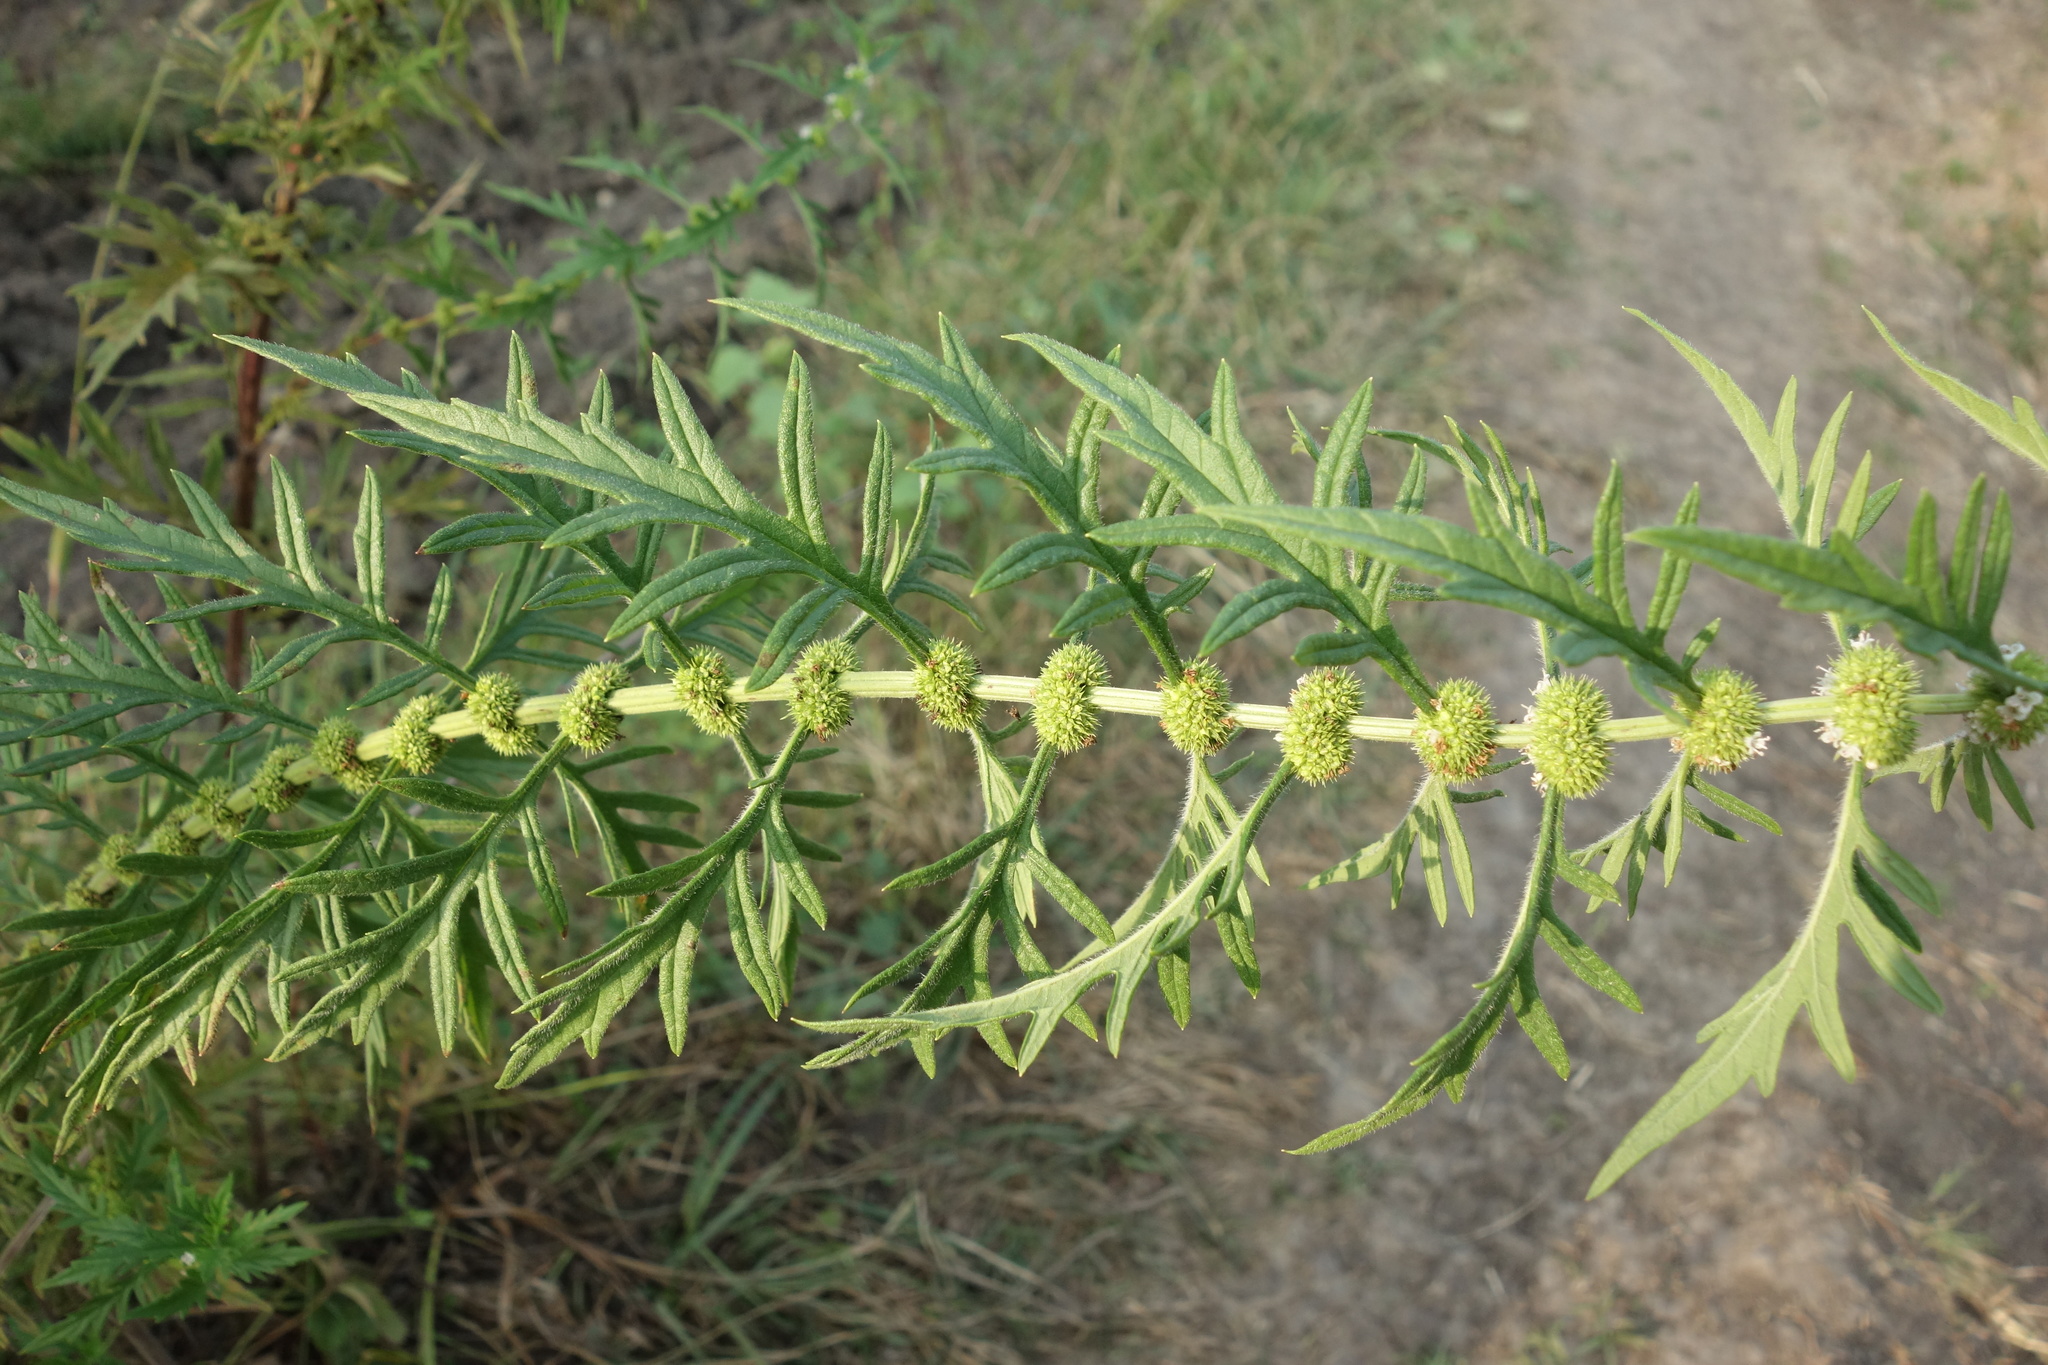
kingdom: Plantae
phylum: Tracheophyta
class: Magnoliopsida
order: Lamiales
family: Lamiaceae
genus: Lycopus
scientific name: Lycopus exaltatus
